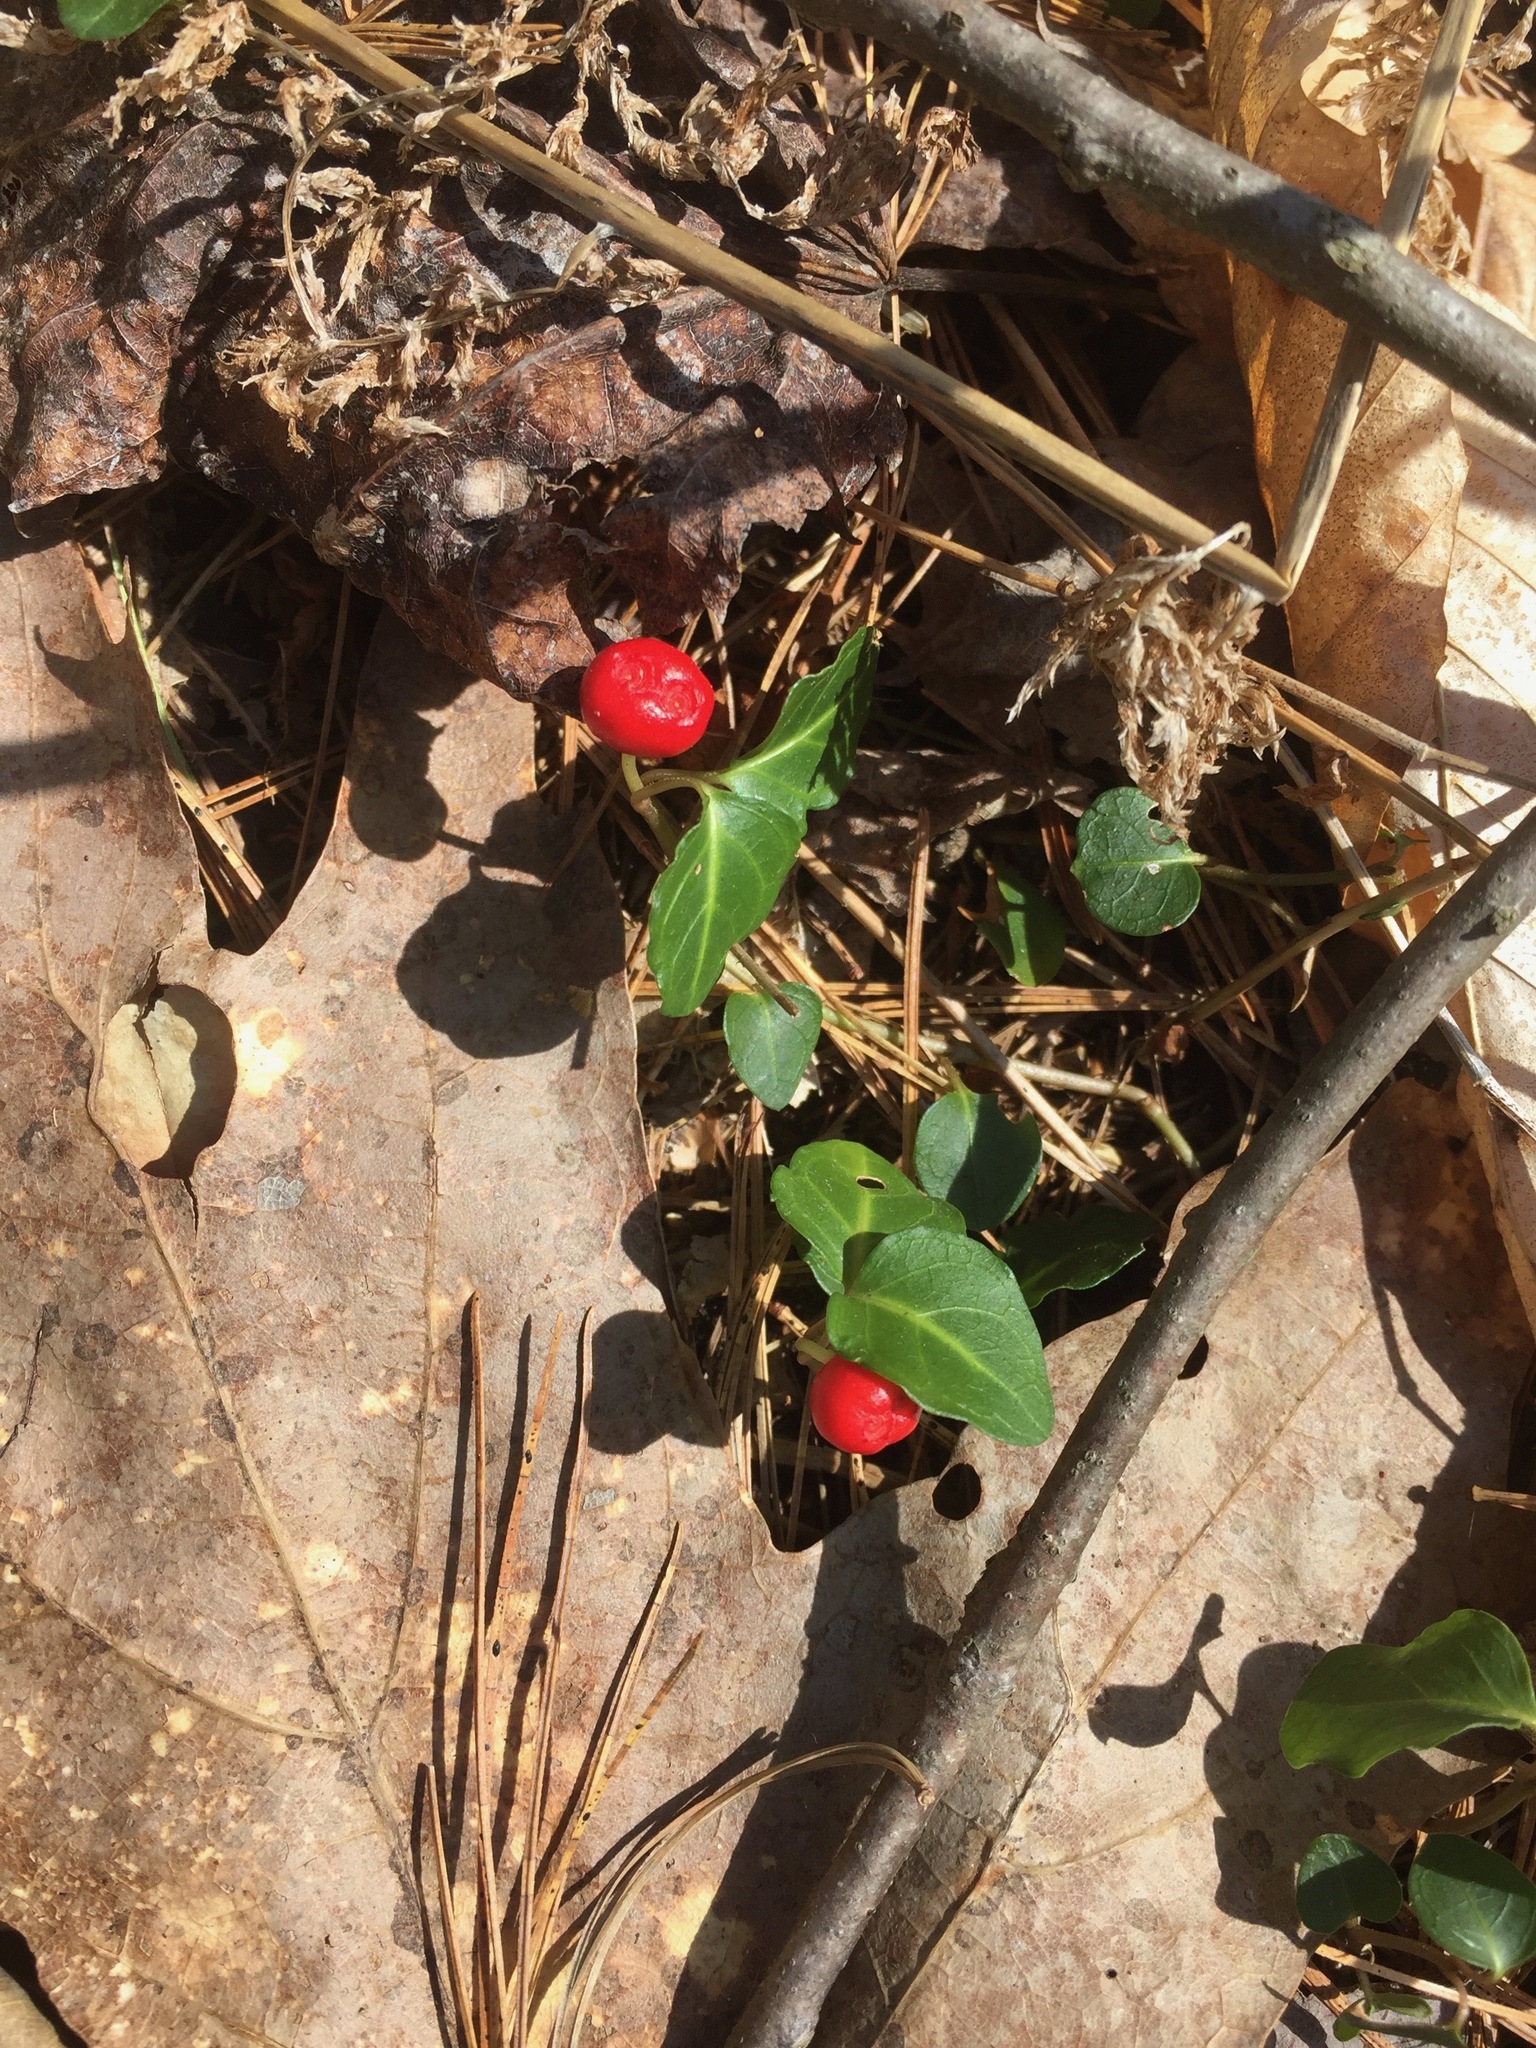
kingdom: Plantae
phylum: Tracheophyta
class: Magnoliopsida
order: Gentianales
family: Rubiaceae
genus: Mitchella
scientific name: Mitchella repens
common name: Partridge-berry
